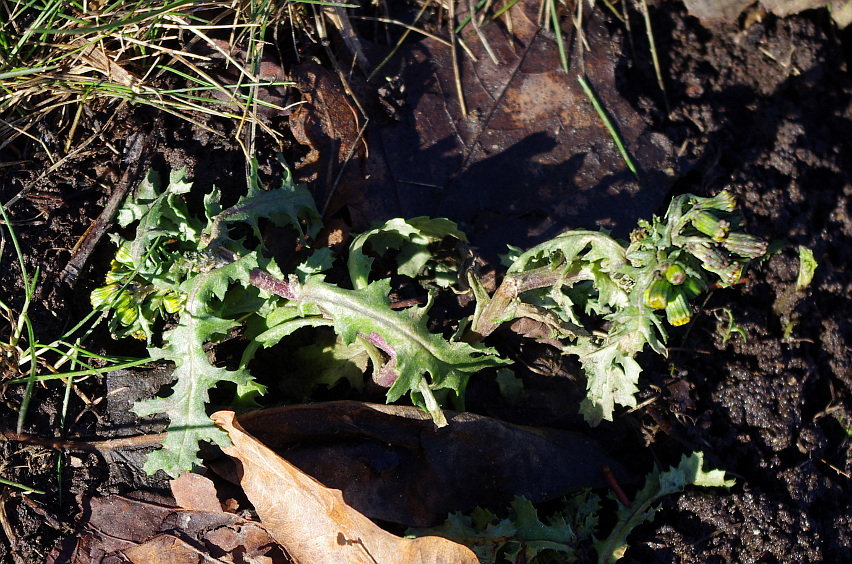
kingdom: Plantae
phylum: Tracheophyta
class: Magnoliopsida
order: Asterales
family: Asteraceae
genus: Senecio
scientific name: Senecio vulgaris
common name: Old-man-in-the-spring
